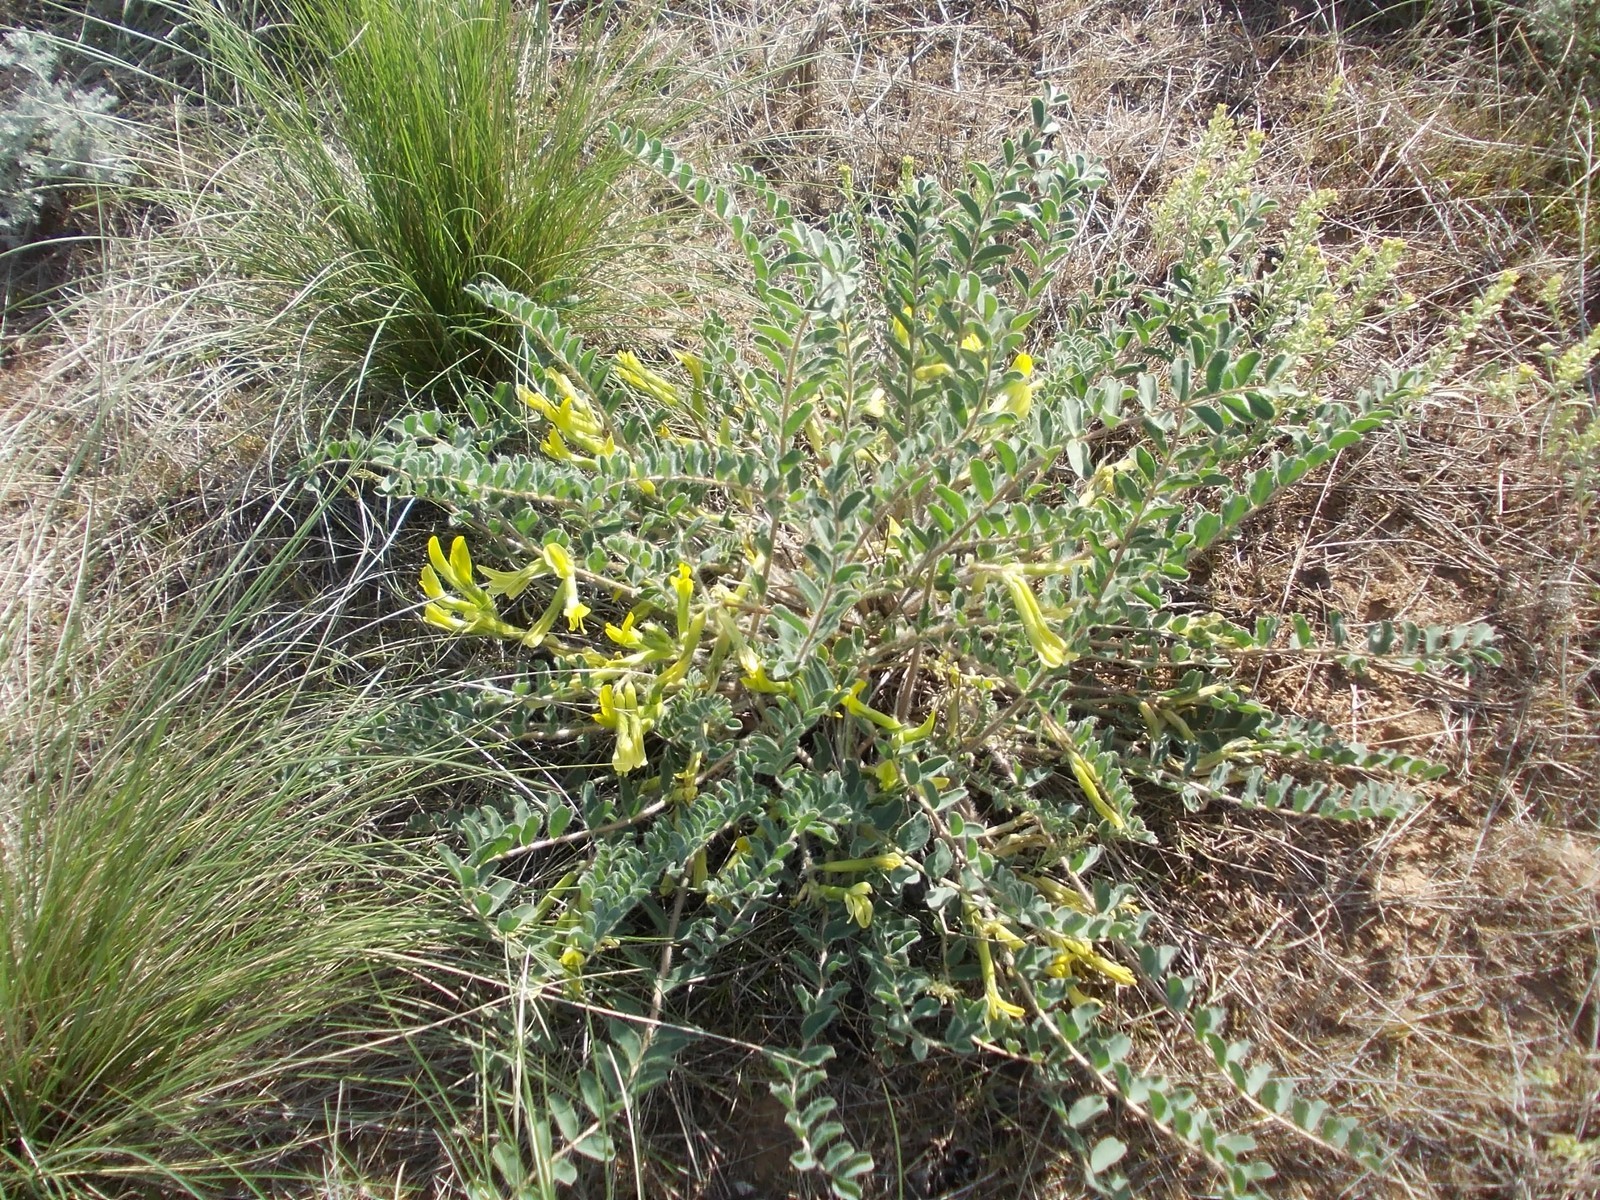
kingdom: Plantae
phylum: Tracheophyta
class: Magnoliopsida
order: Fabales
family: Fabaceae
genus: Astragalus
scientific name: Astragalus longipetalus
